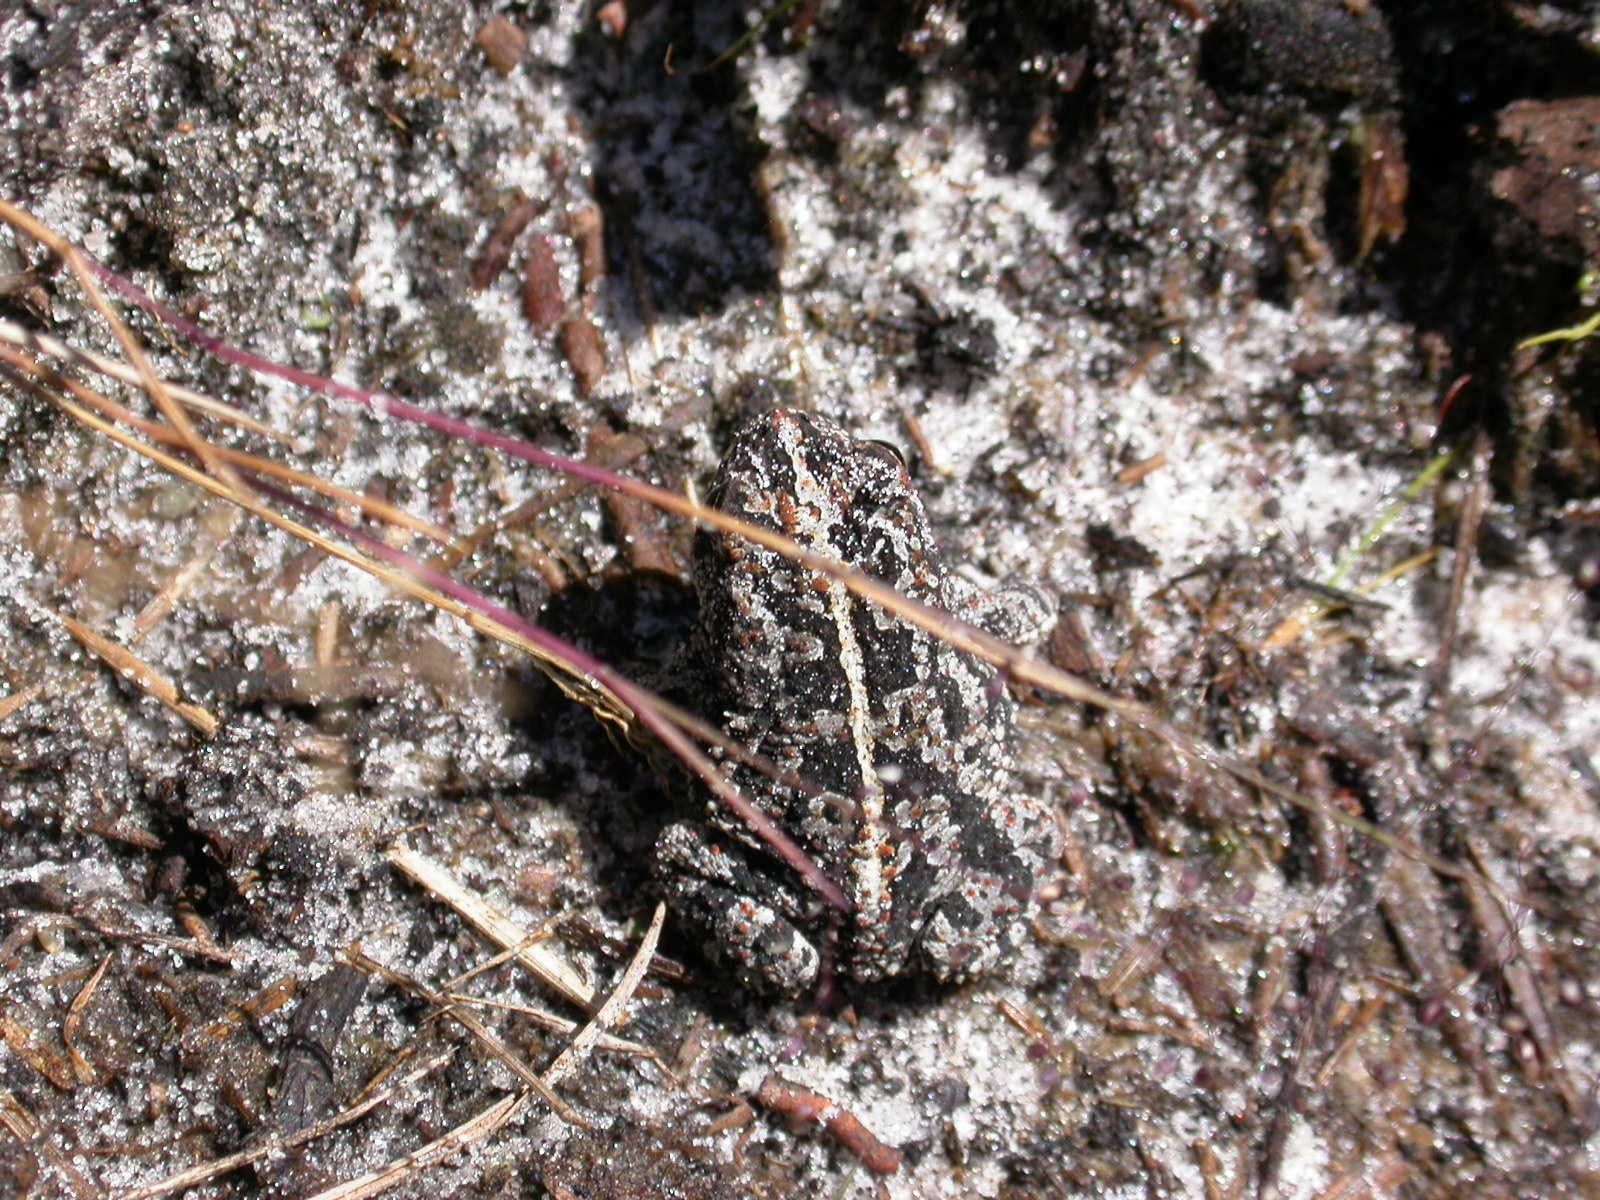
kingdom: Animalia
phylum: Chordata
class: Amphibia
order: Anura
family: Bufonidae
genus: Anaxyrus
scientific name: Anaxyrus quercicus
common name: Oak toad
